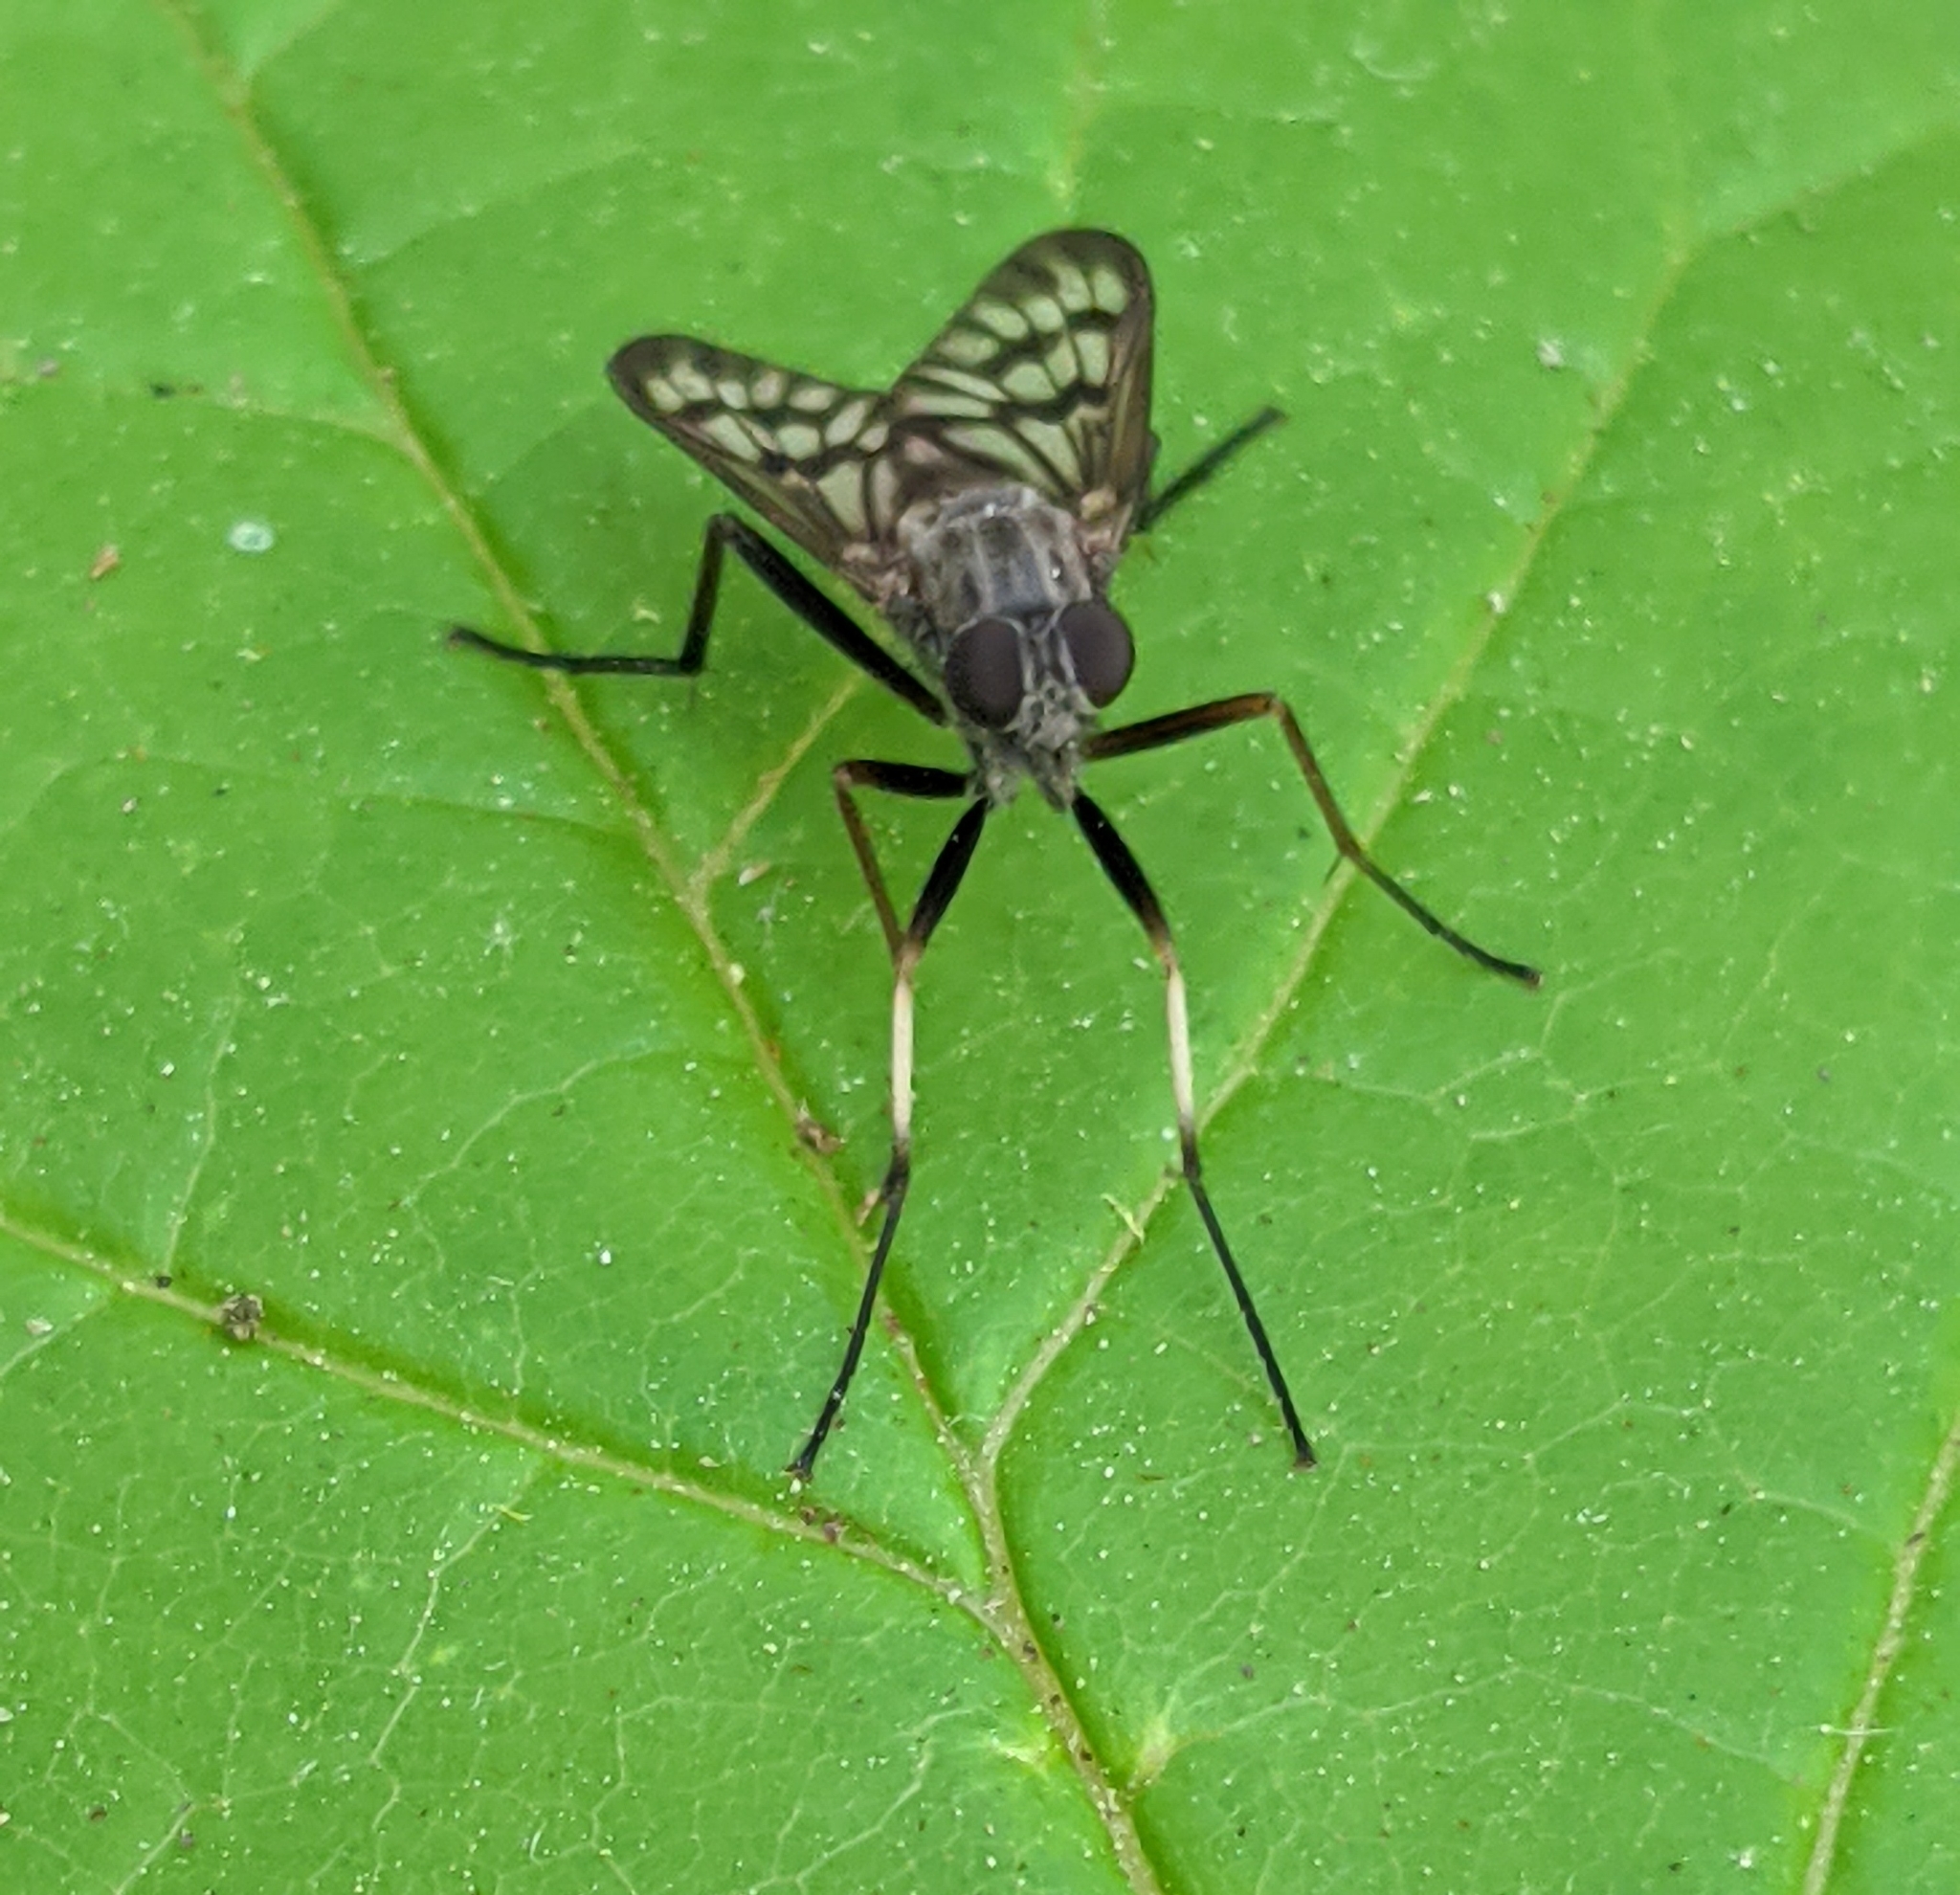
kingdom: Animalia
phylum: Arthropoda
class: Insecta
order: Diptera
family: Rhagionidae
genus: Rhagio
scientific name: Rhagio mystaceus
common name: Common snipe fly
